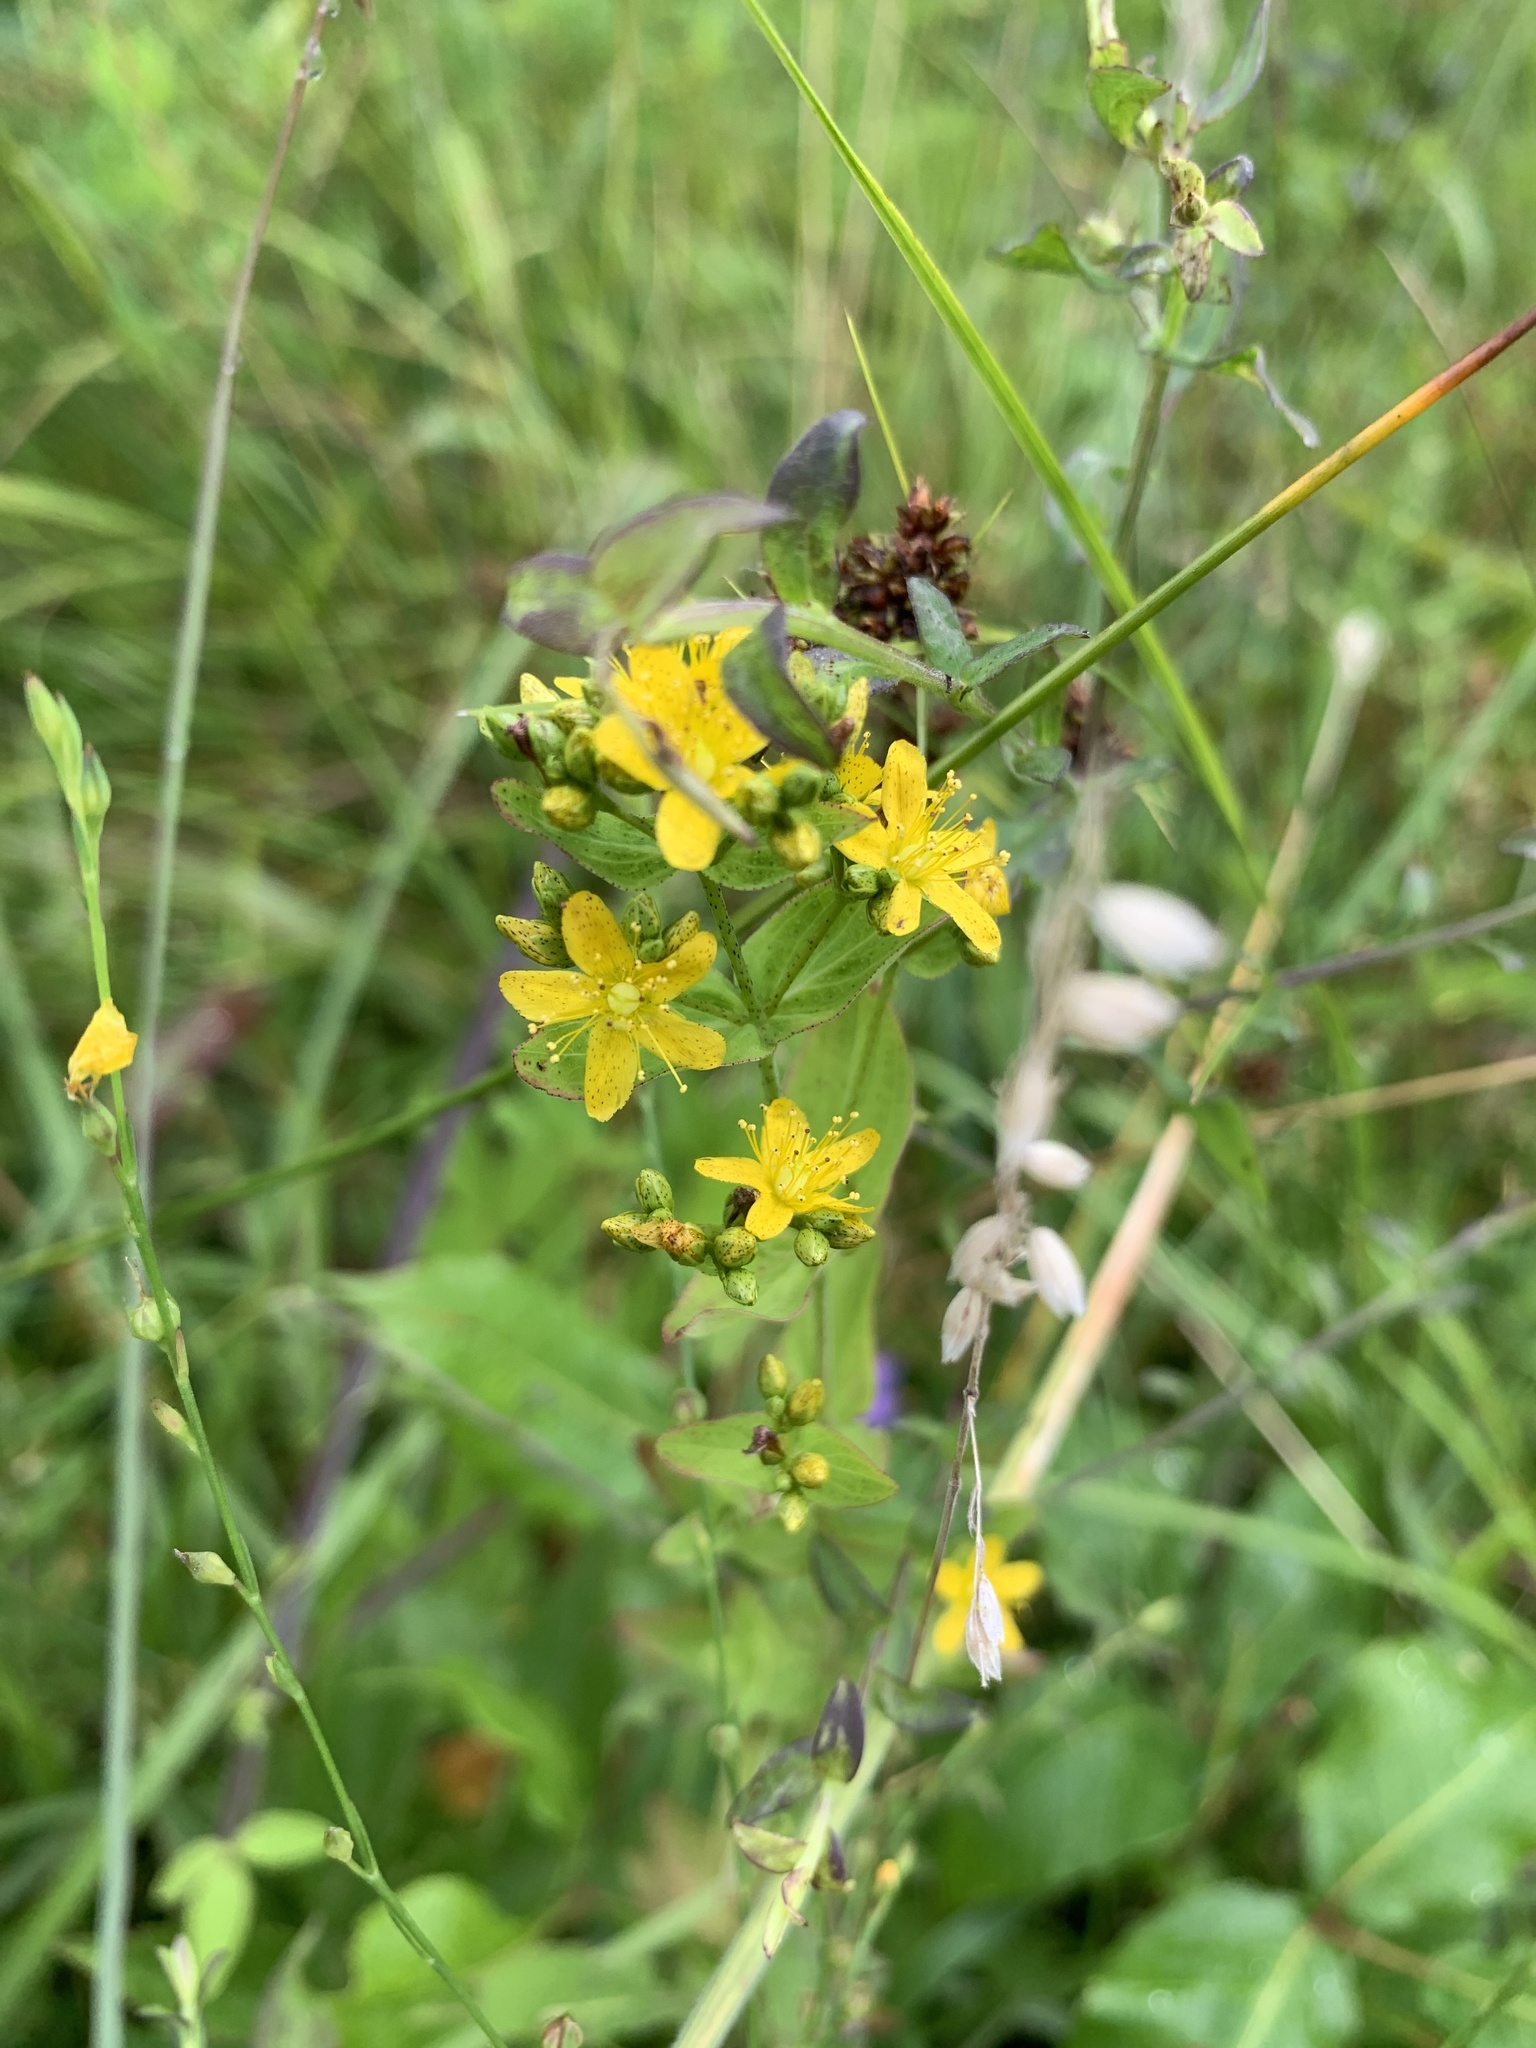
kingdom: Plantae
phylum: Tracheophyta
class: Magnoliopsida
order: Malpighiales
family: Hypericaceae
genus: Hypericum
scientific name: Hypericum punctatum
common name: Spotted st. john's-wort
